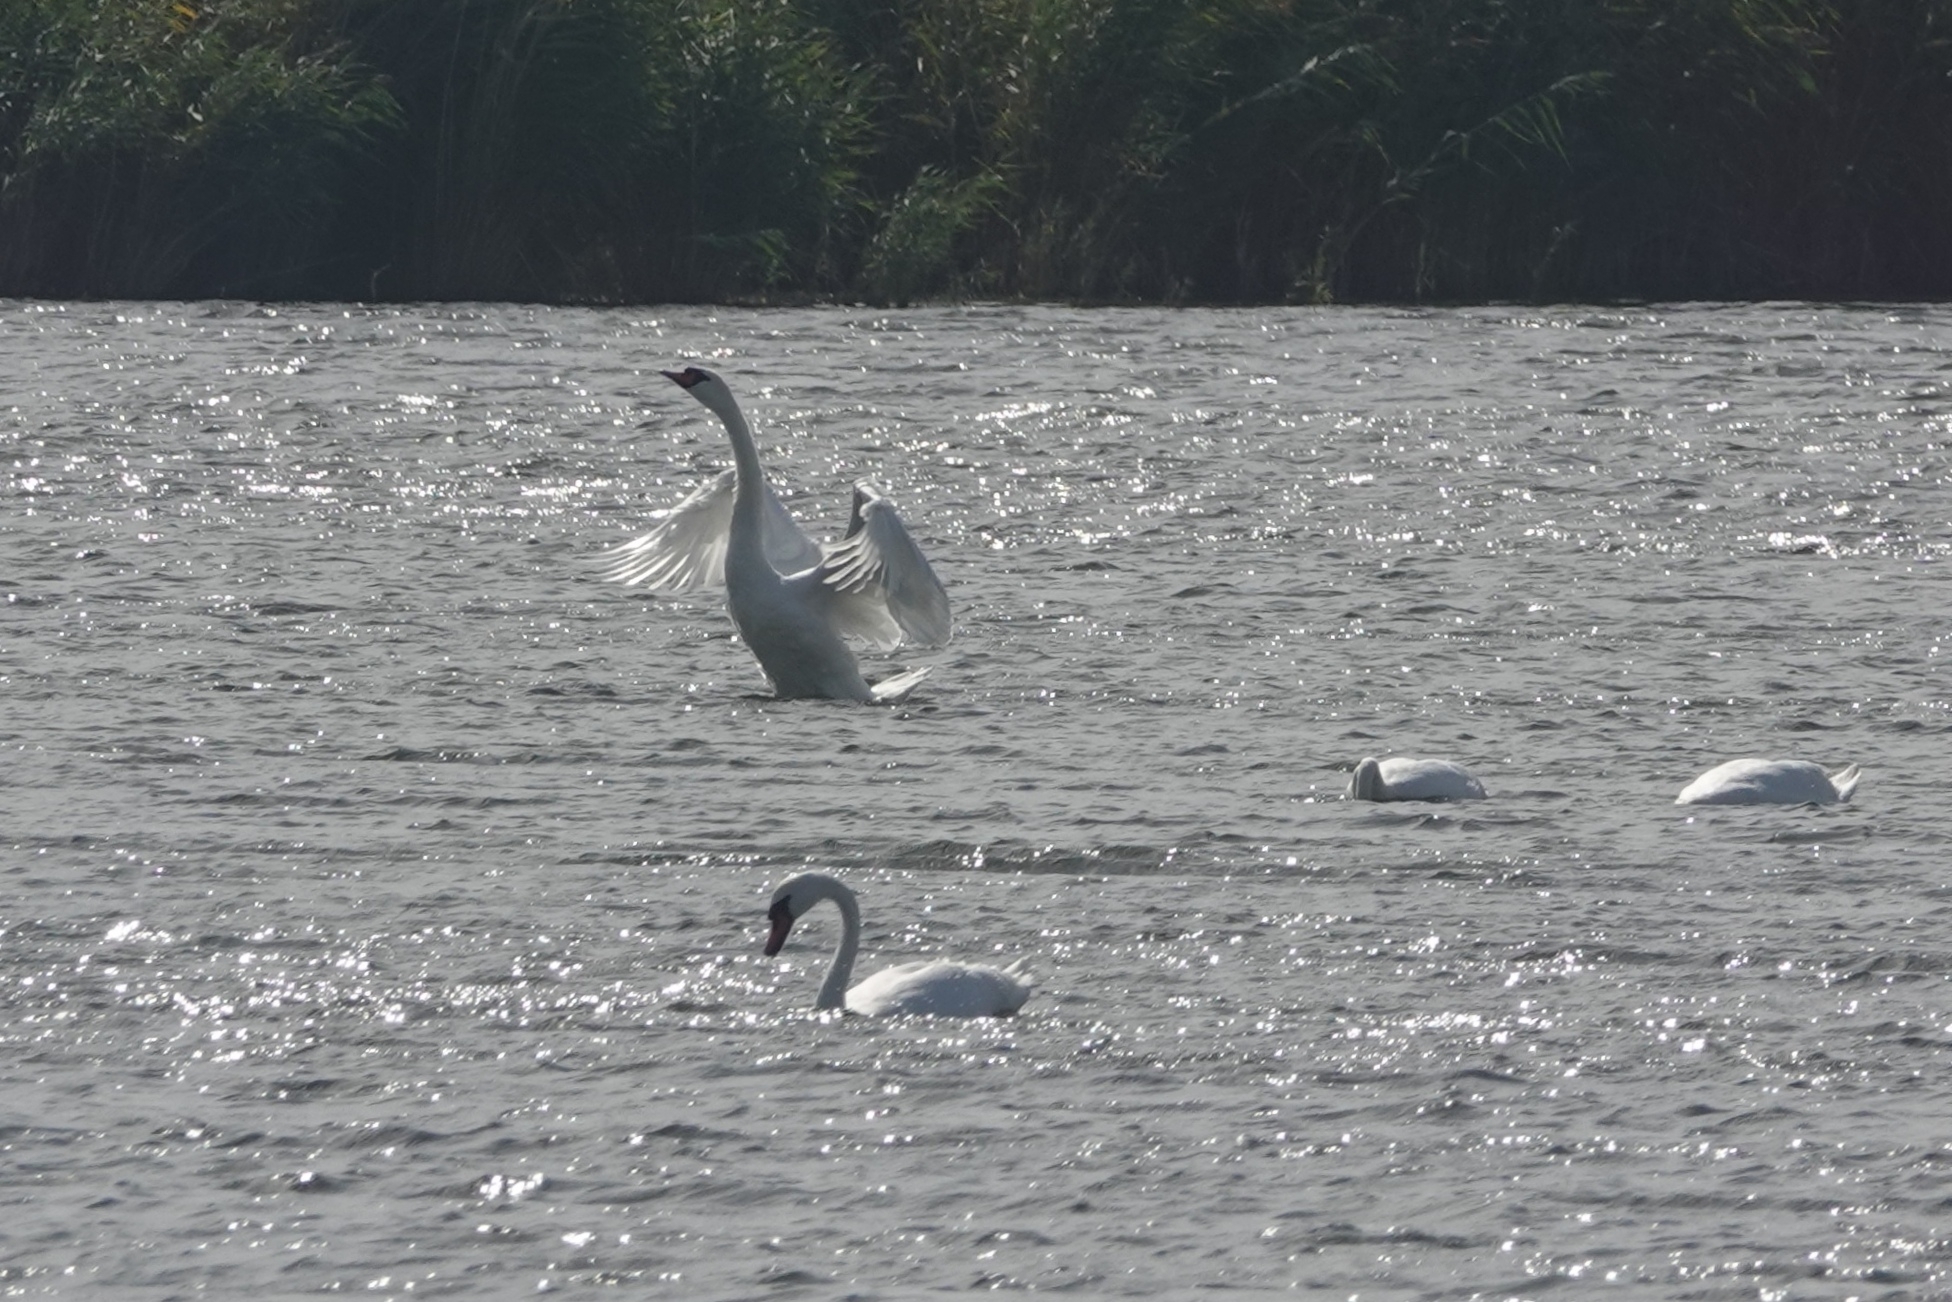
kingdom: Animalia
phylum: Chordata
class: Aves
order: Anseriformes
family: Anatidae
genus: Cygnus
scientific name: Cygnus olor
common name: Mute swan
